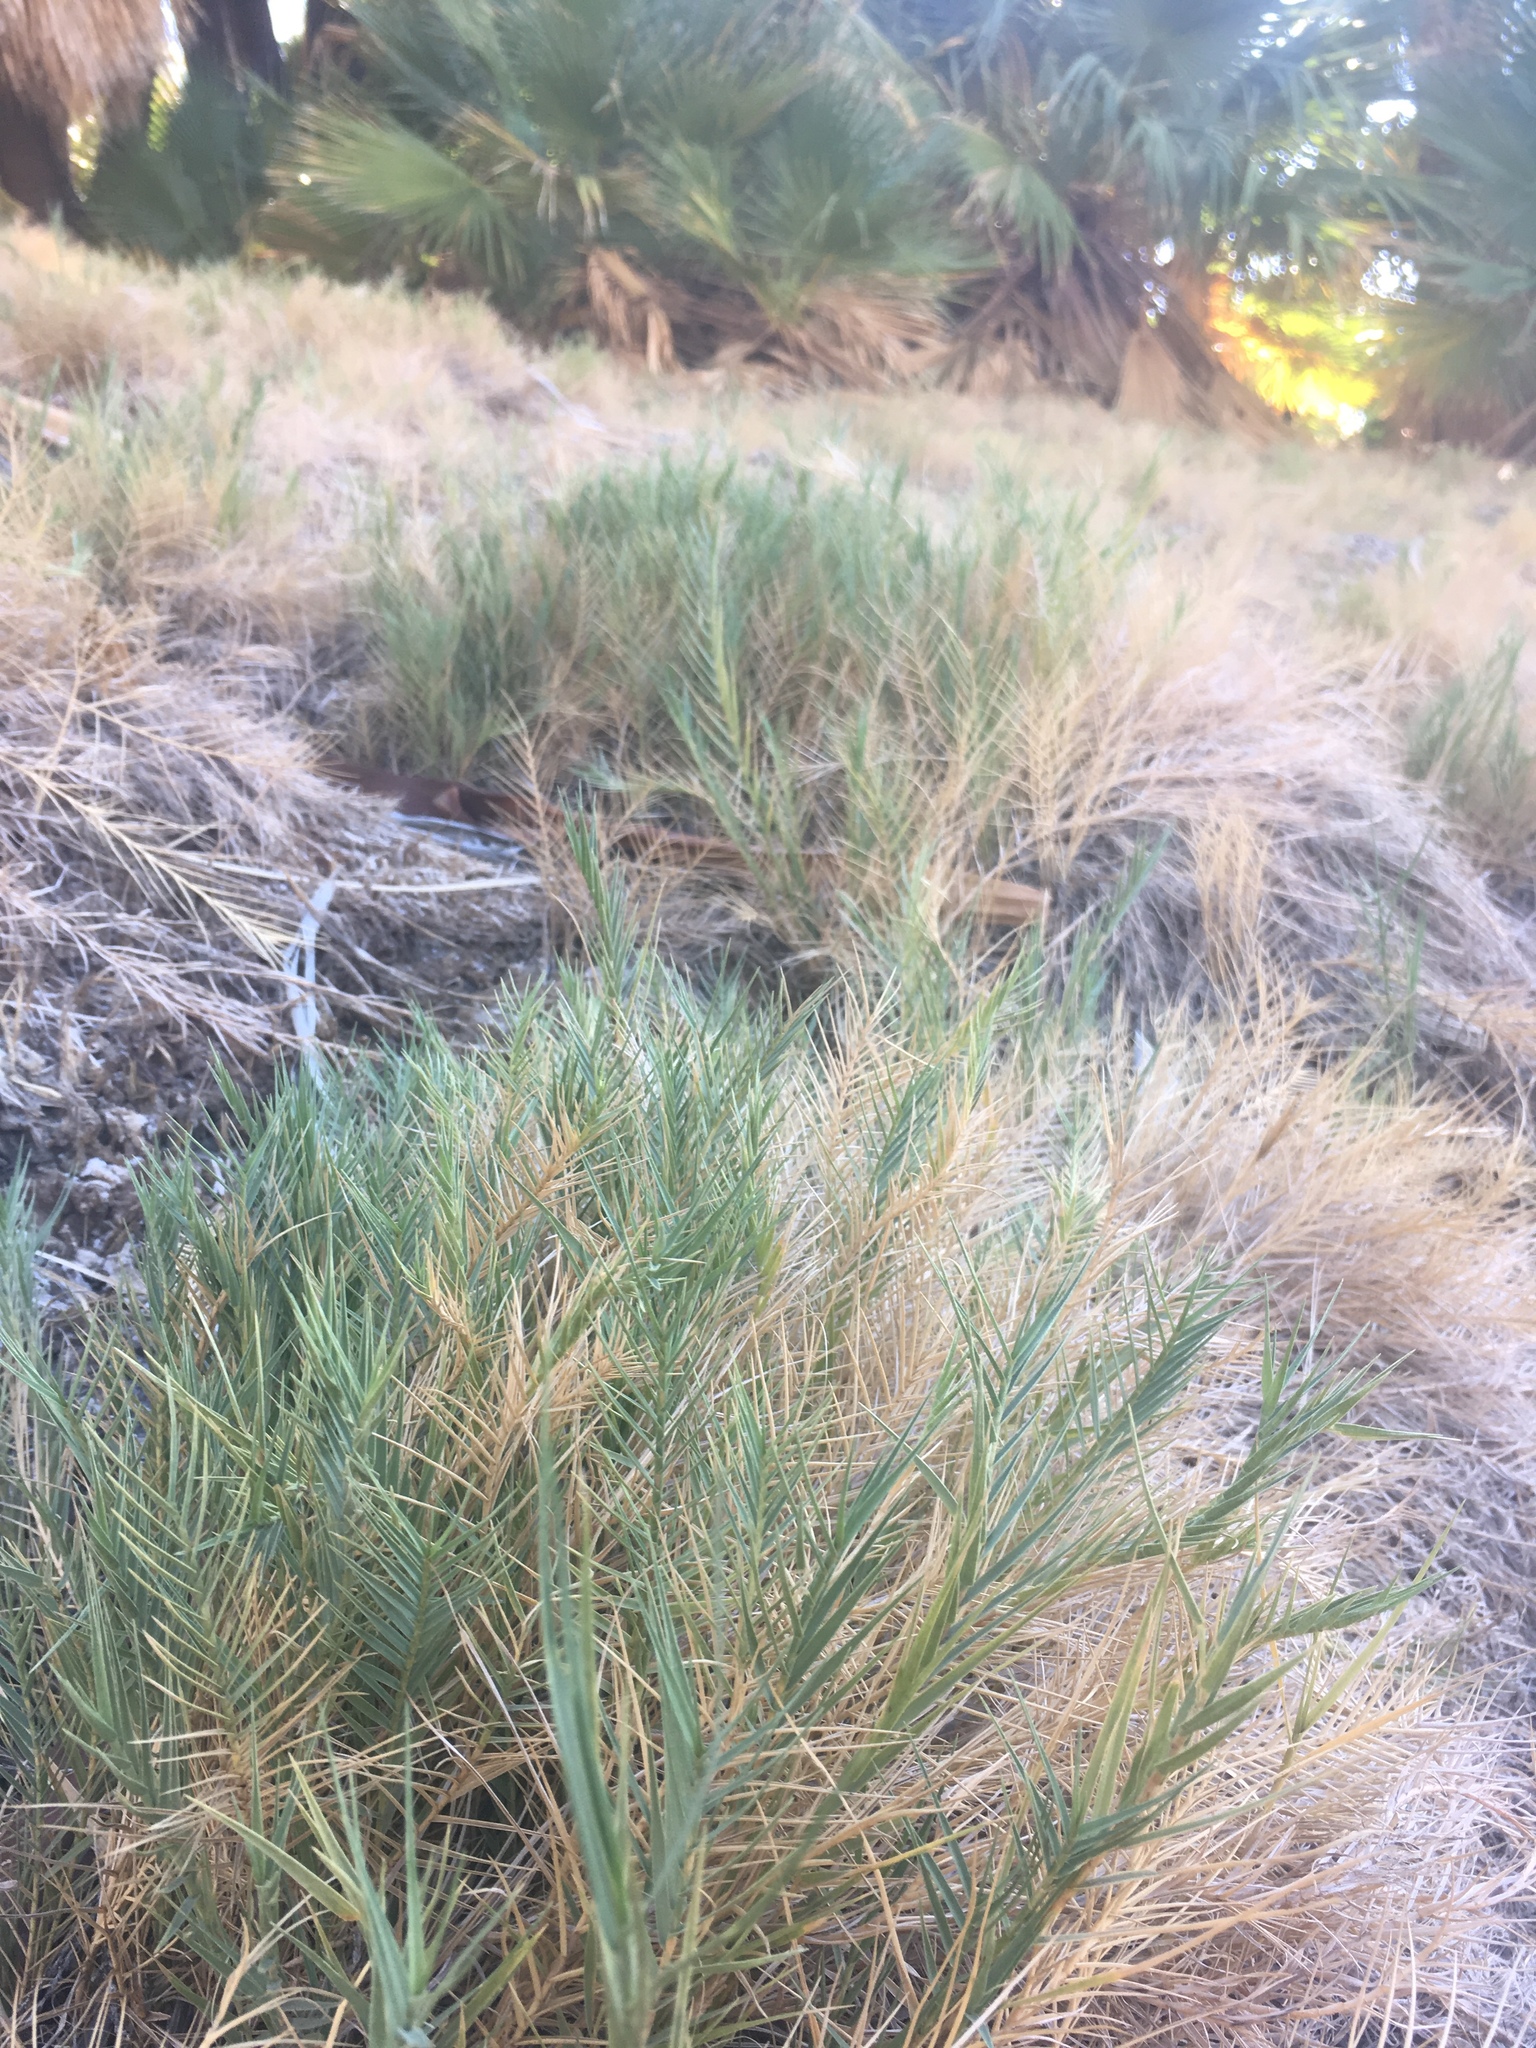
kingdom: Plantae
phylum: Tracheophyta
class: Liliopsida
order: Poales
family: Poaceae
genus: Distichlis
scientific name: Distichlis spicata
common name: Saltgrass
